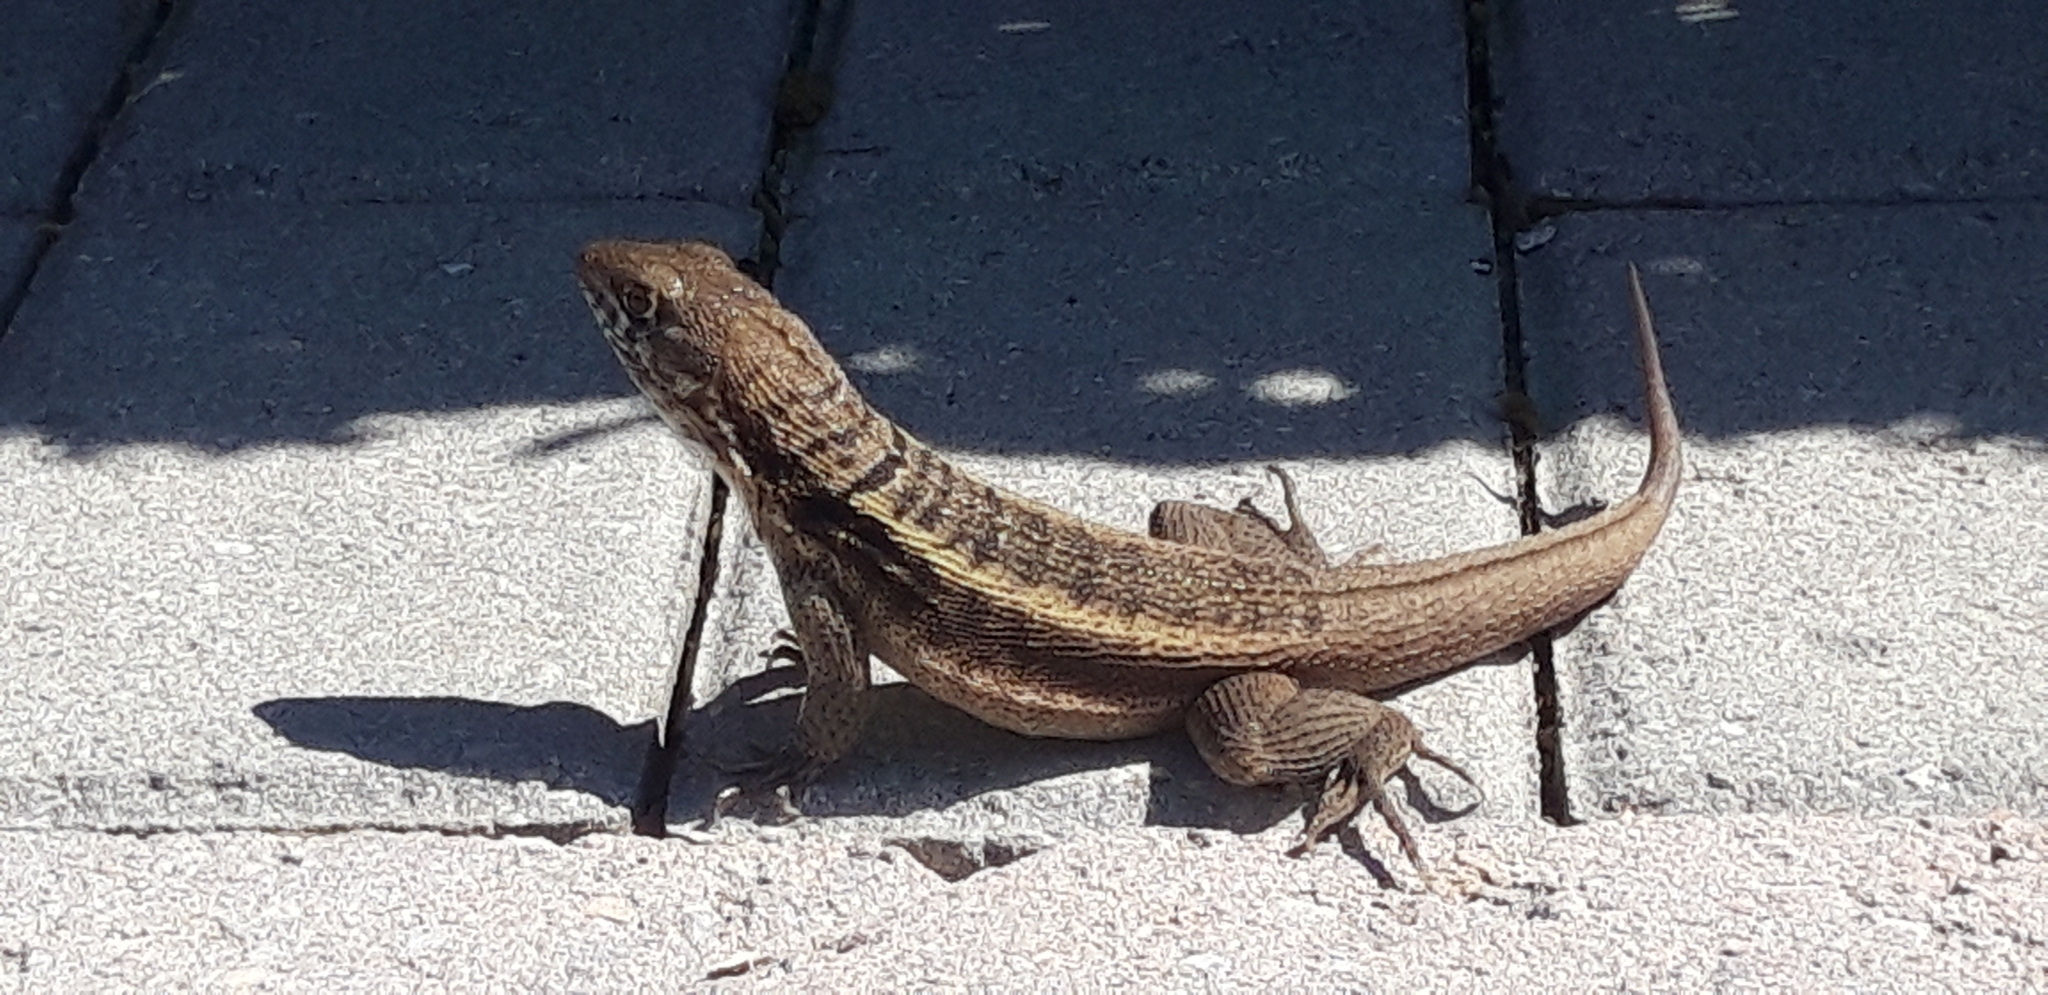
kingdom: Animalia
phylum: Chordata
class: Squamata
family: Leiocephalidae
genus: Leiocephalus
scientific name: Leiocephalus psammodromus
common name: Bastion cay curlytail lizard
